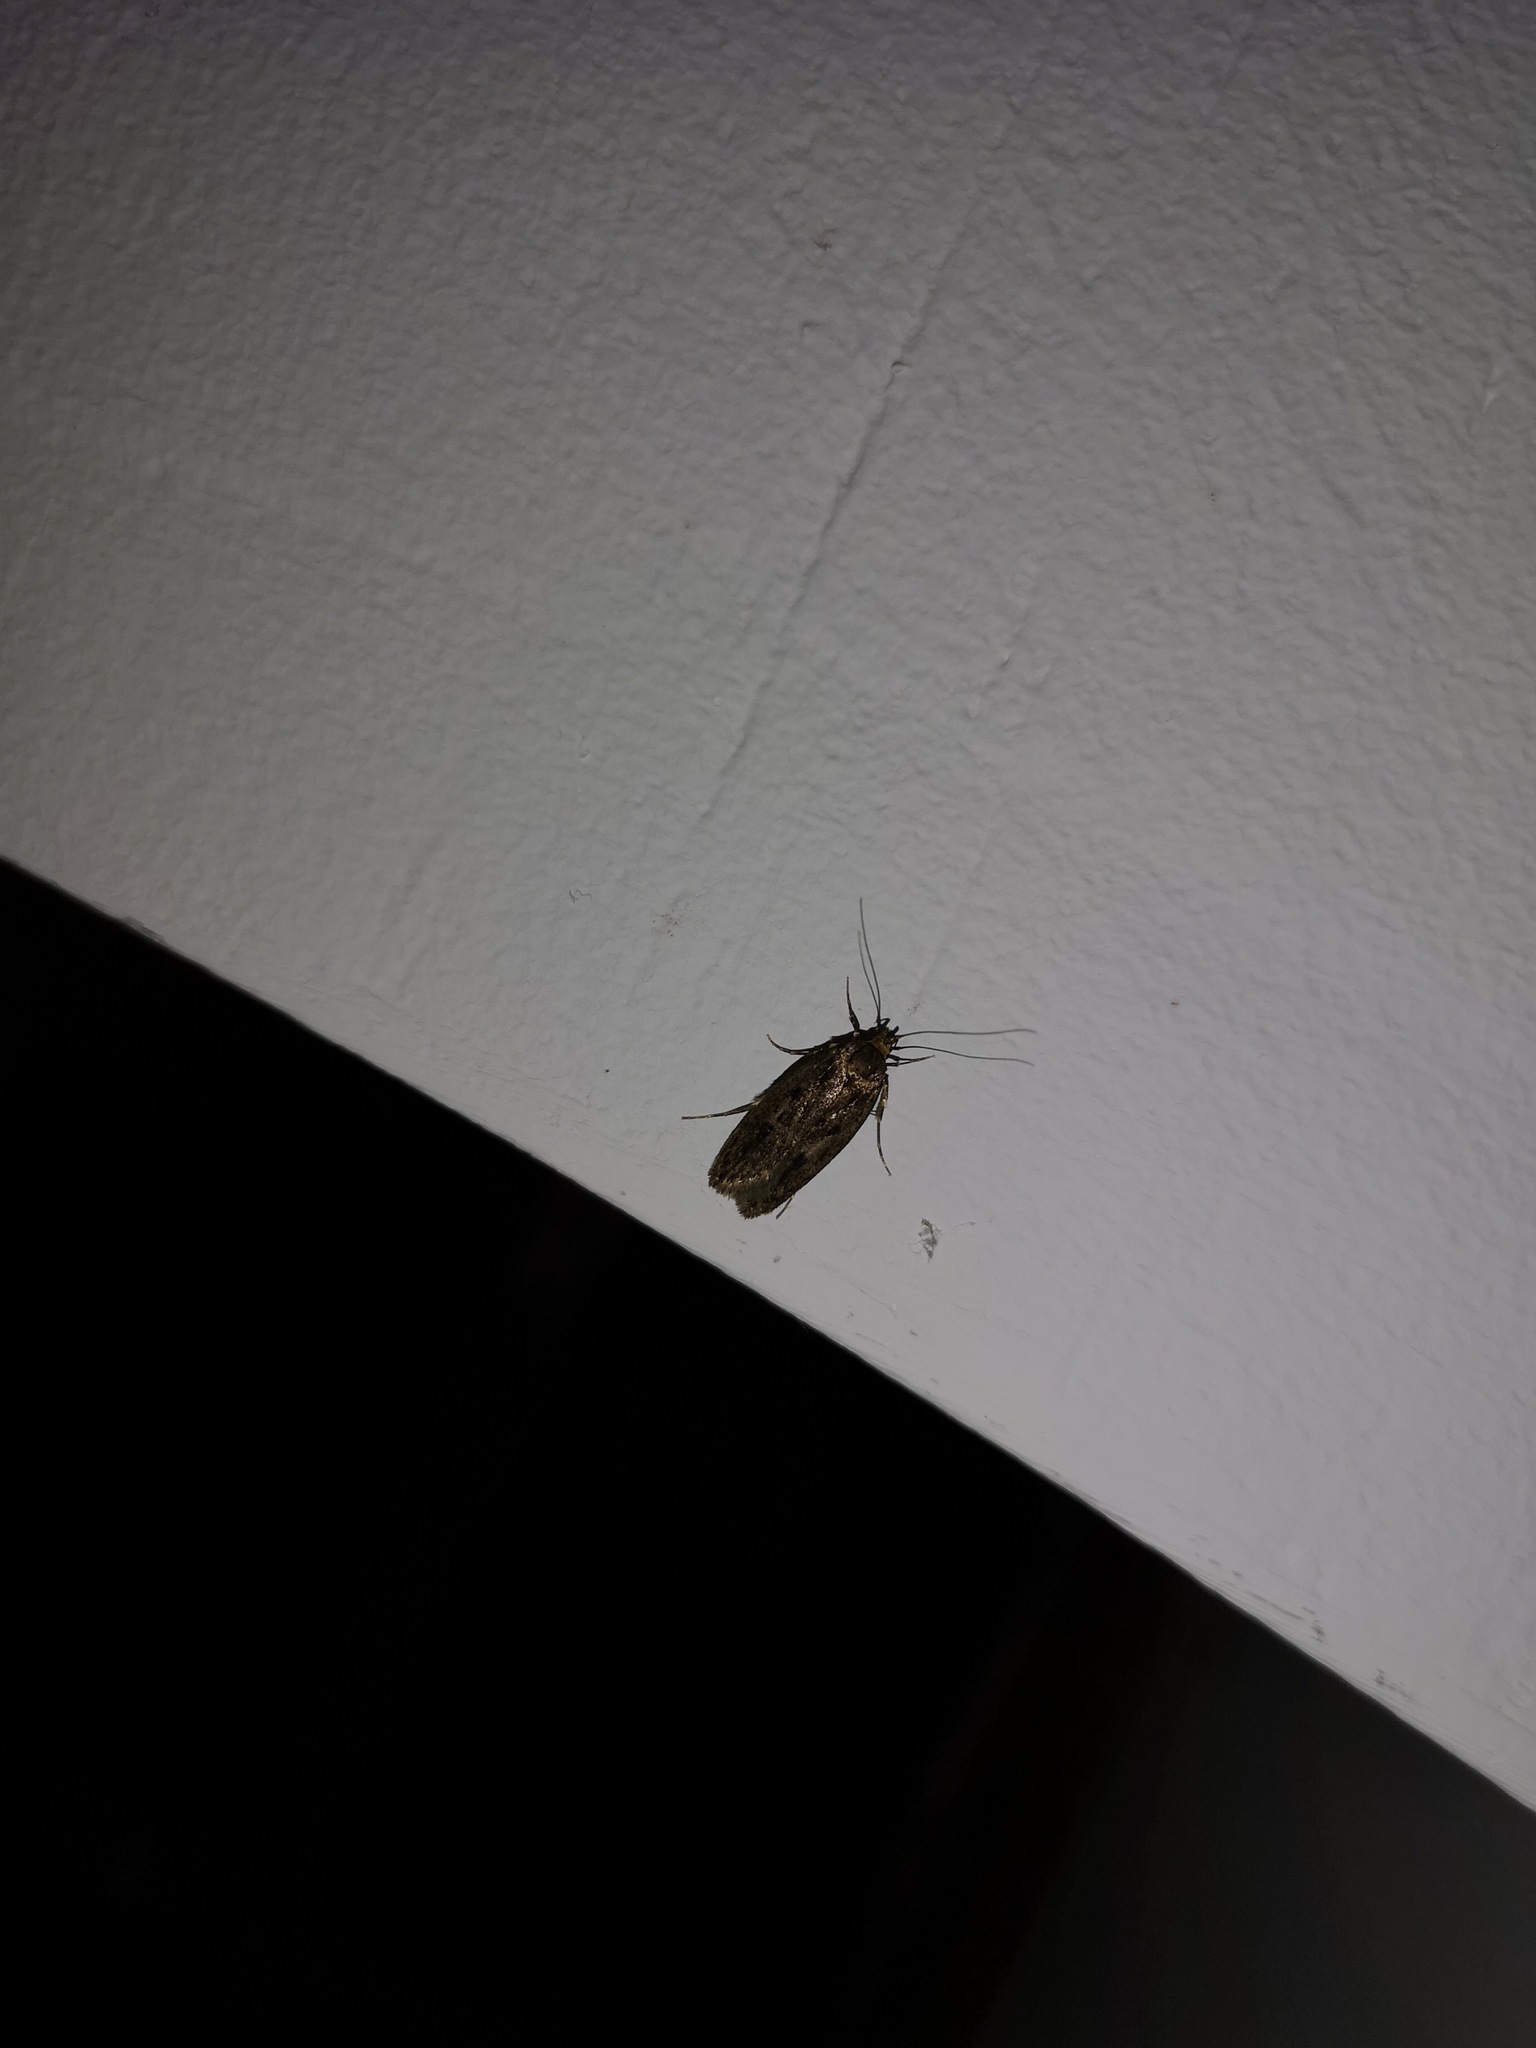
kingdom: Animalia
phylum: Arthropoda
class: Insecta
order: Lepidoptera
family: Oecophoridae
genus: Hofmannophila
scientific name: Hofmannophila pseudospretella
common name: Brown house moth
